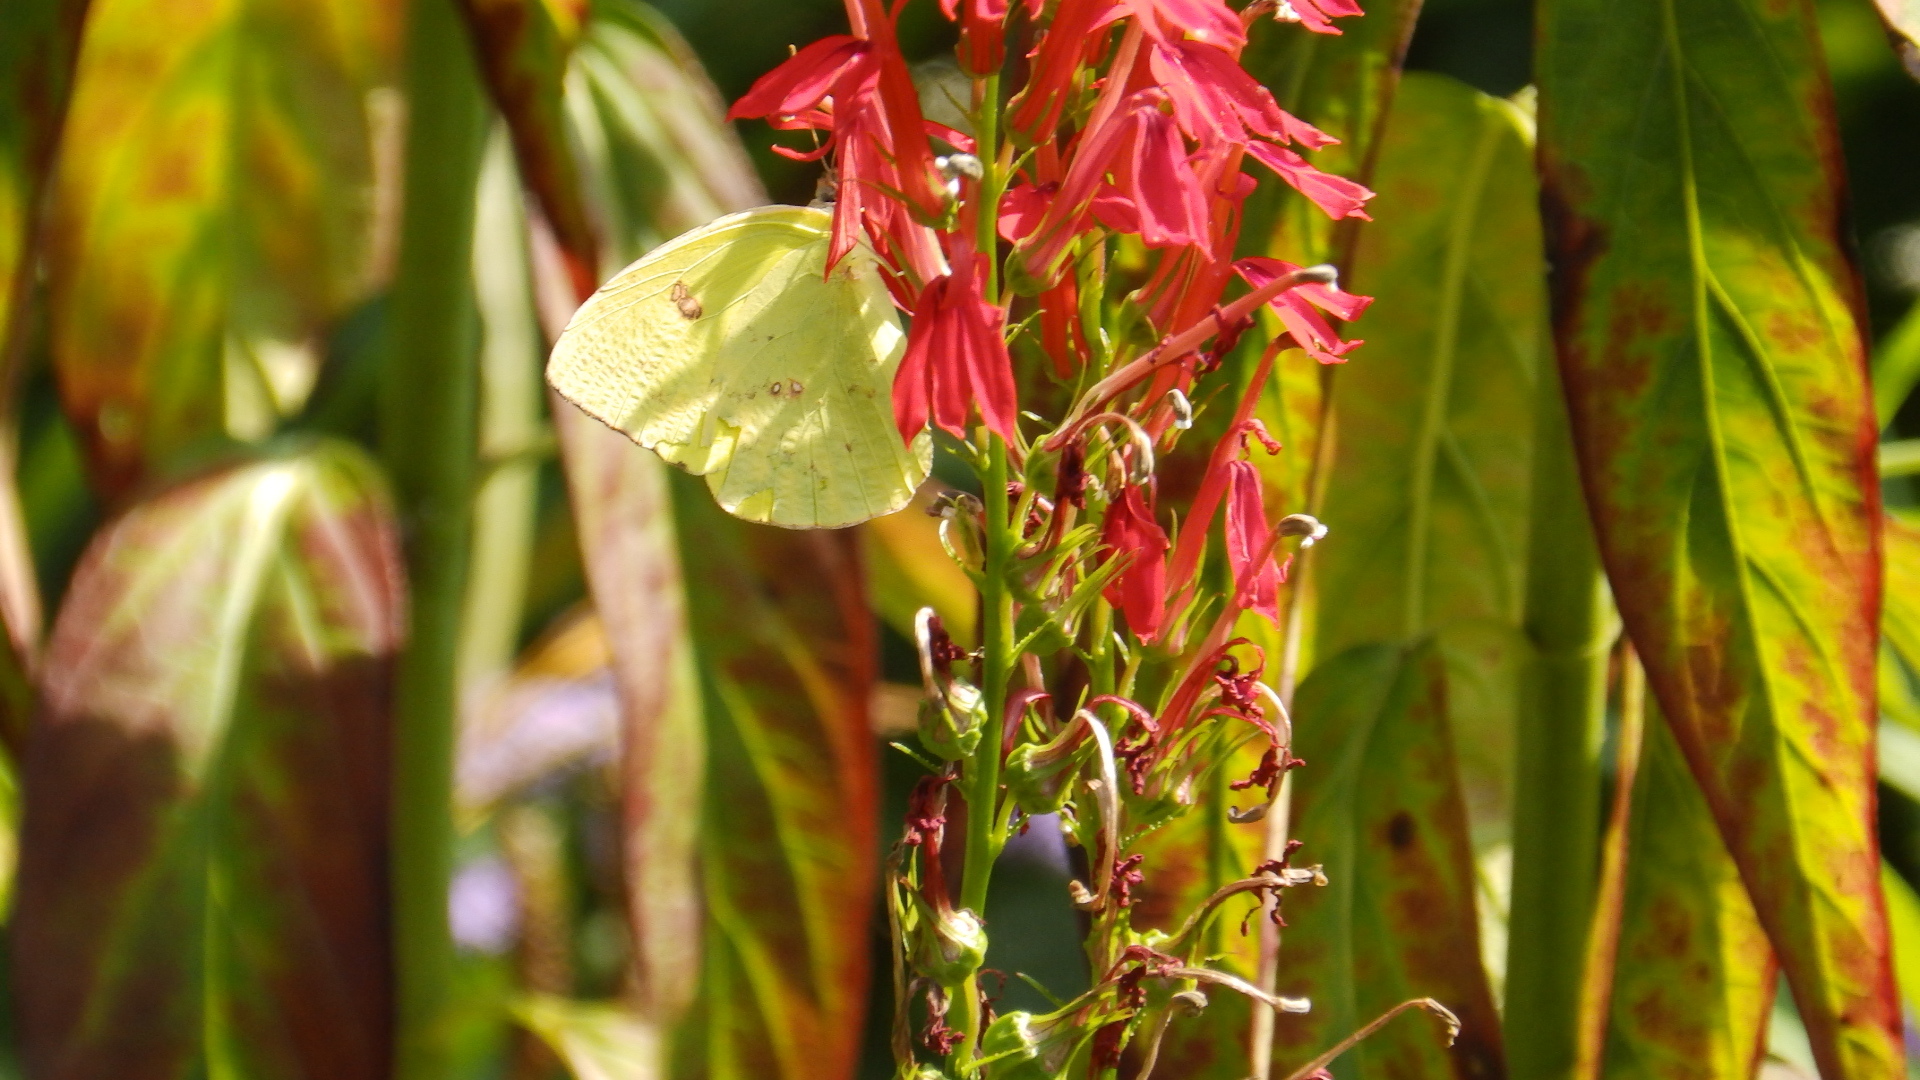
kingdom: Animalia
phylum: Arthropoda
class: Insecta
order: Lepidoptera
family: Pieridae
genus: Phoebis
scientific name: Phoebis sennae
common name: Cloudless sulphur
